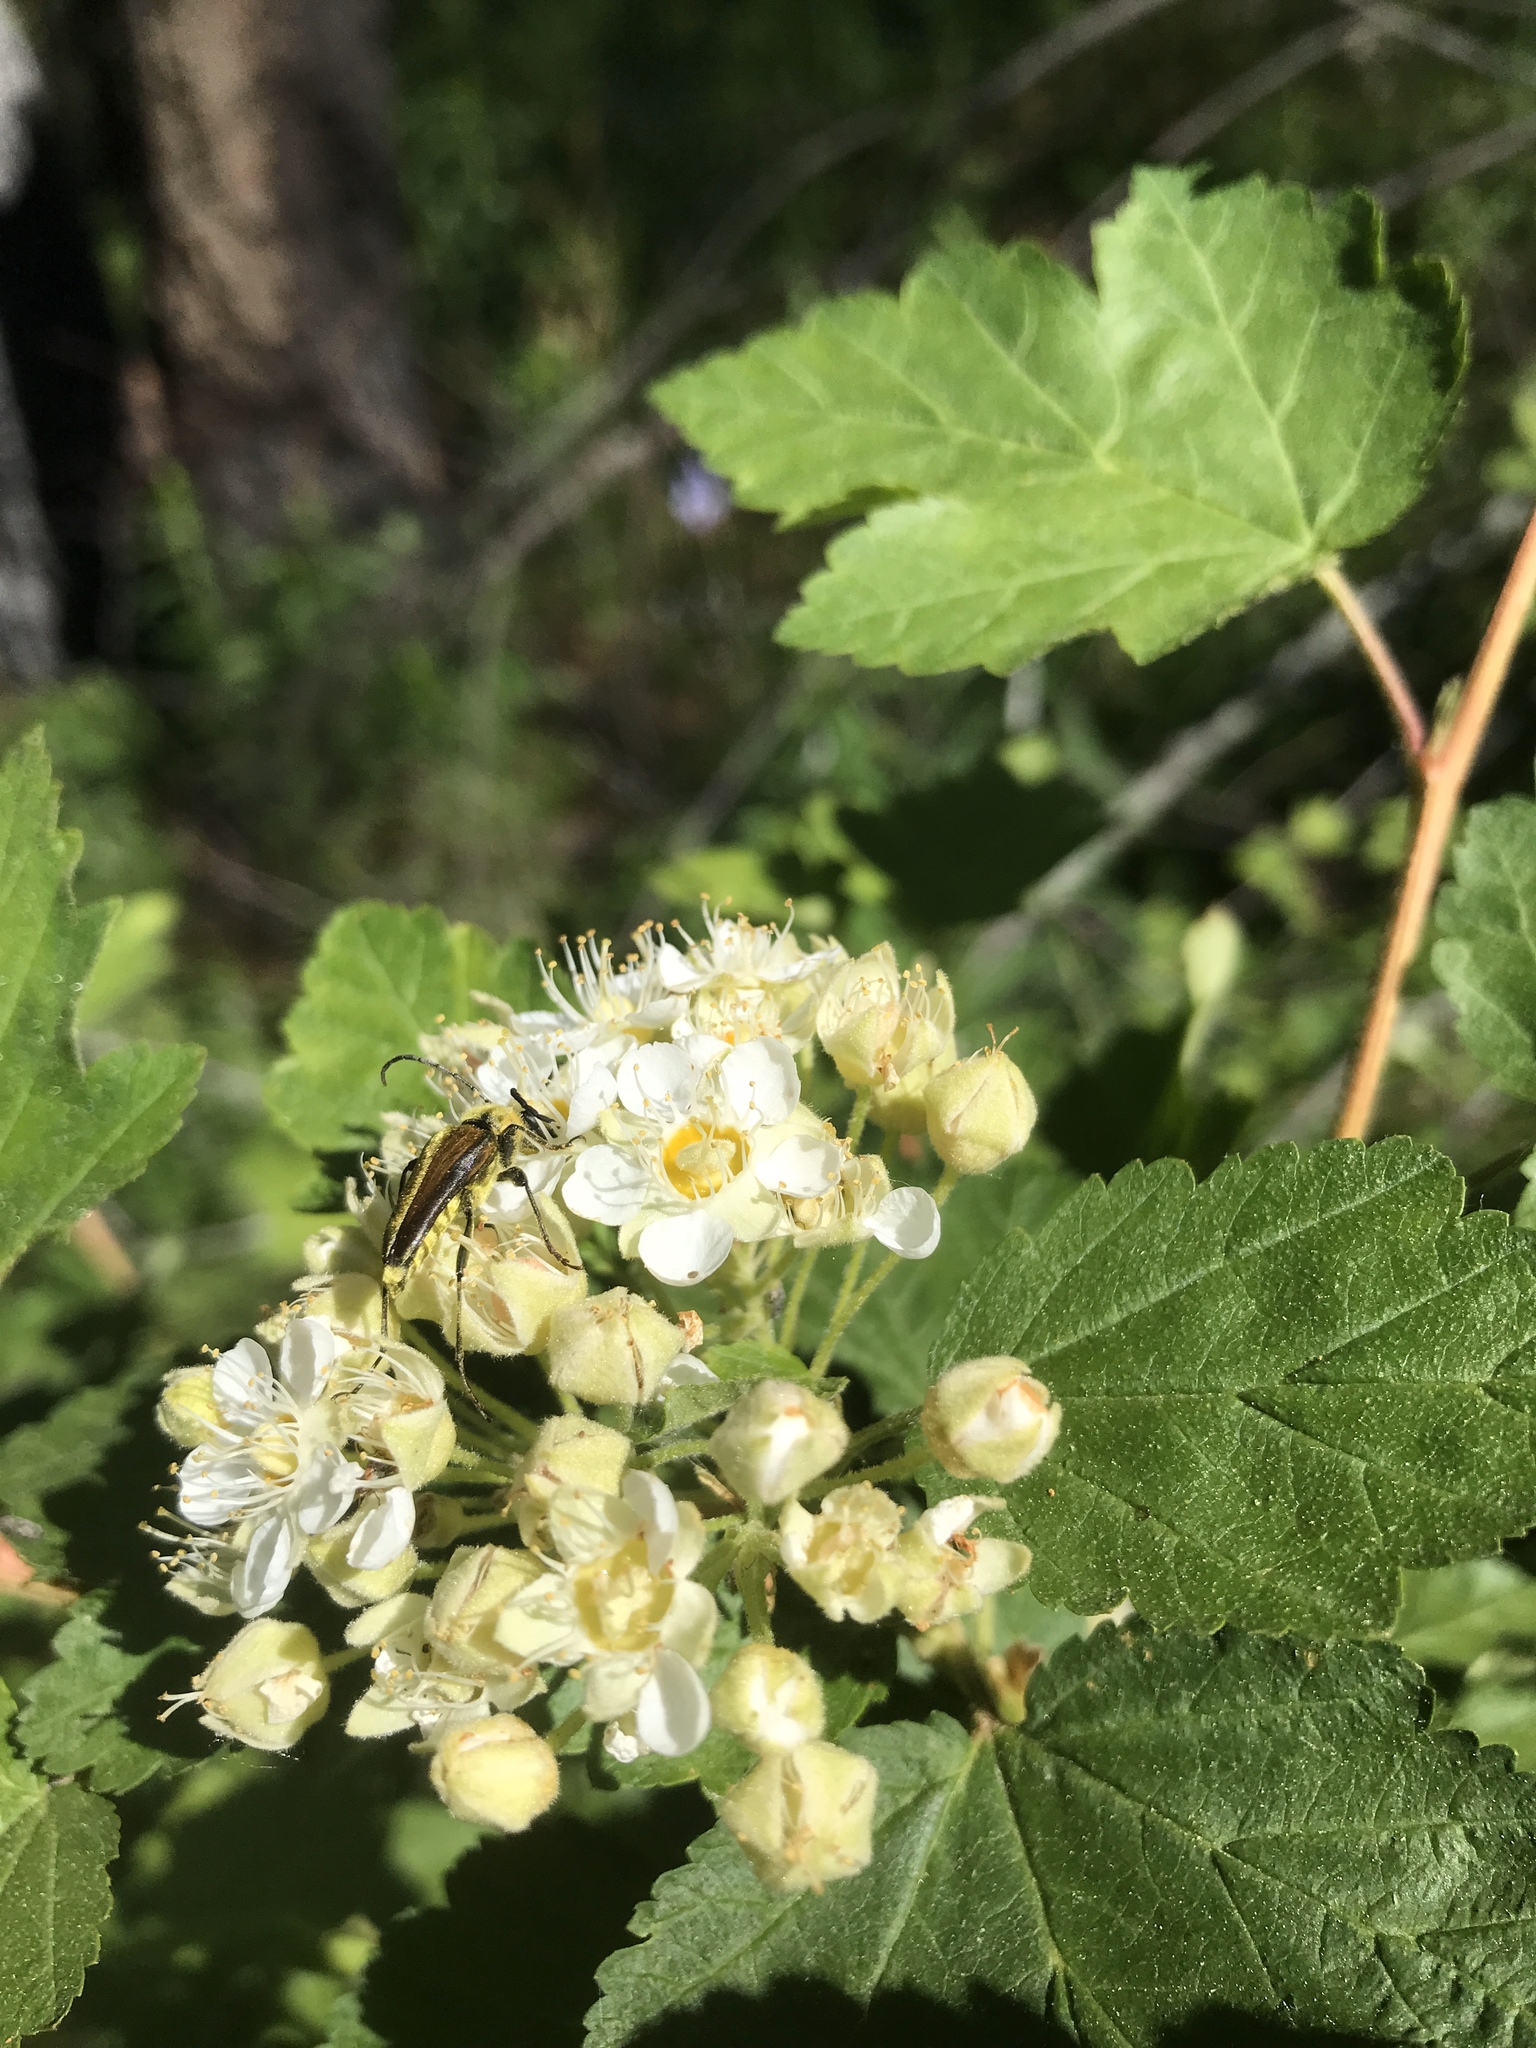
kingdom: Animalia
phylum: Arthropoda
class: Insecta
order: Coleoptera
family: Cerambycidae
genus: Cosmosalia
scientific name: Cosmosalia chrysocoma
